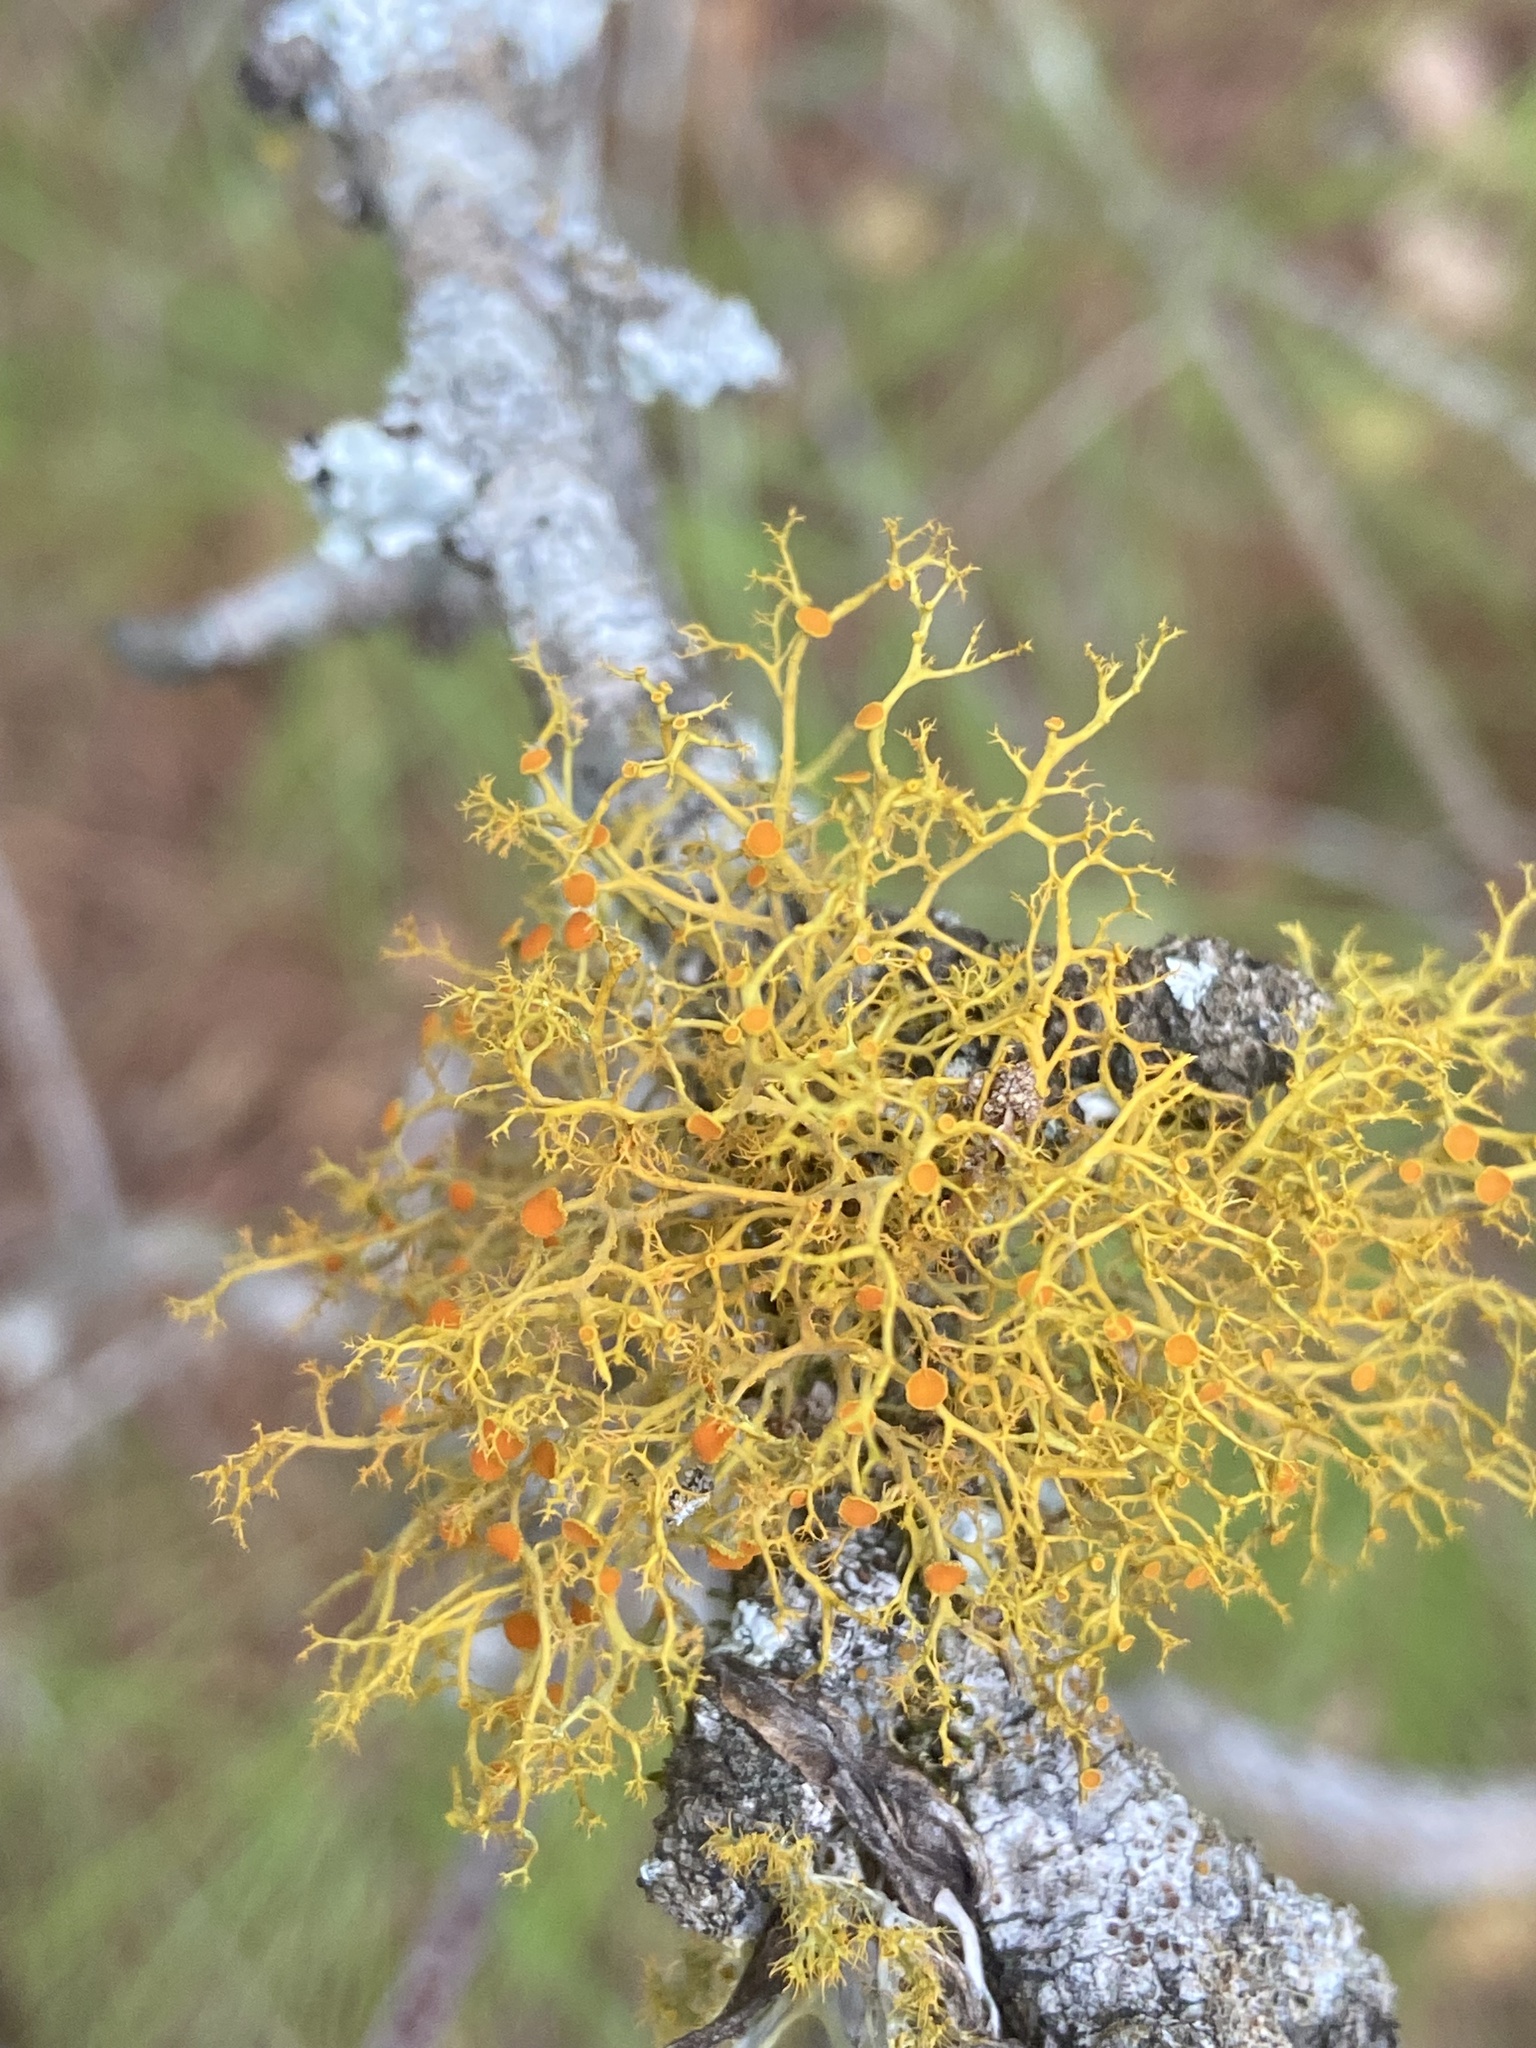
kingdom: Fungi
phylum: Ascomycota
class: Lecanoromycetes
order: Teloschistales
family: Teloschistaceae
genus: Teloschistes
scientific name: Teloschistes exilis
